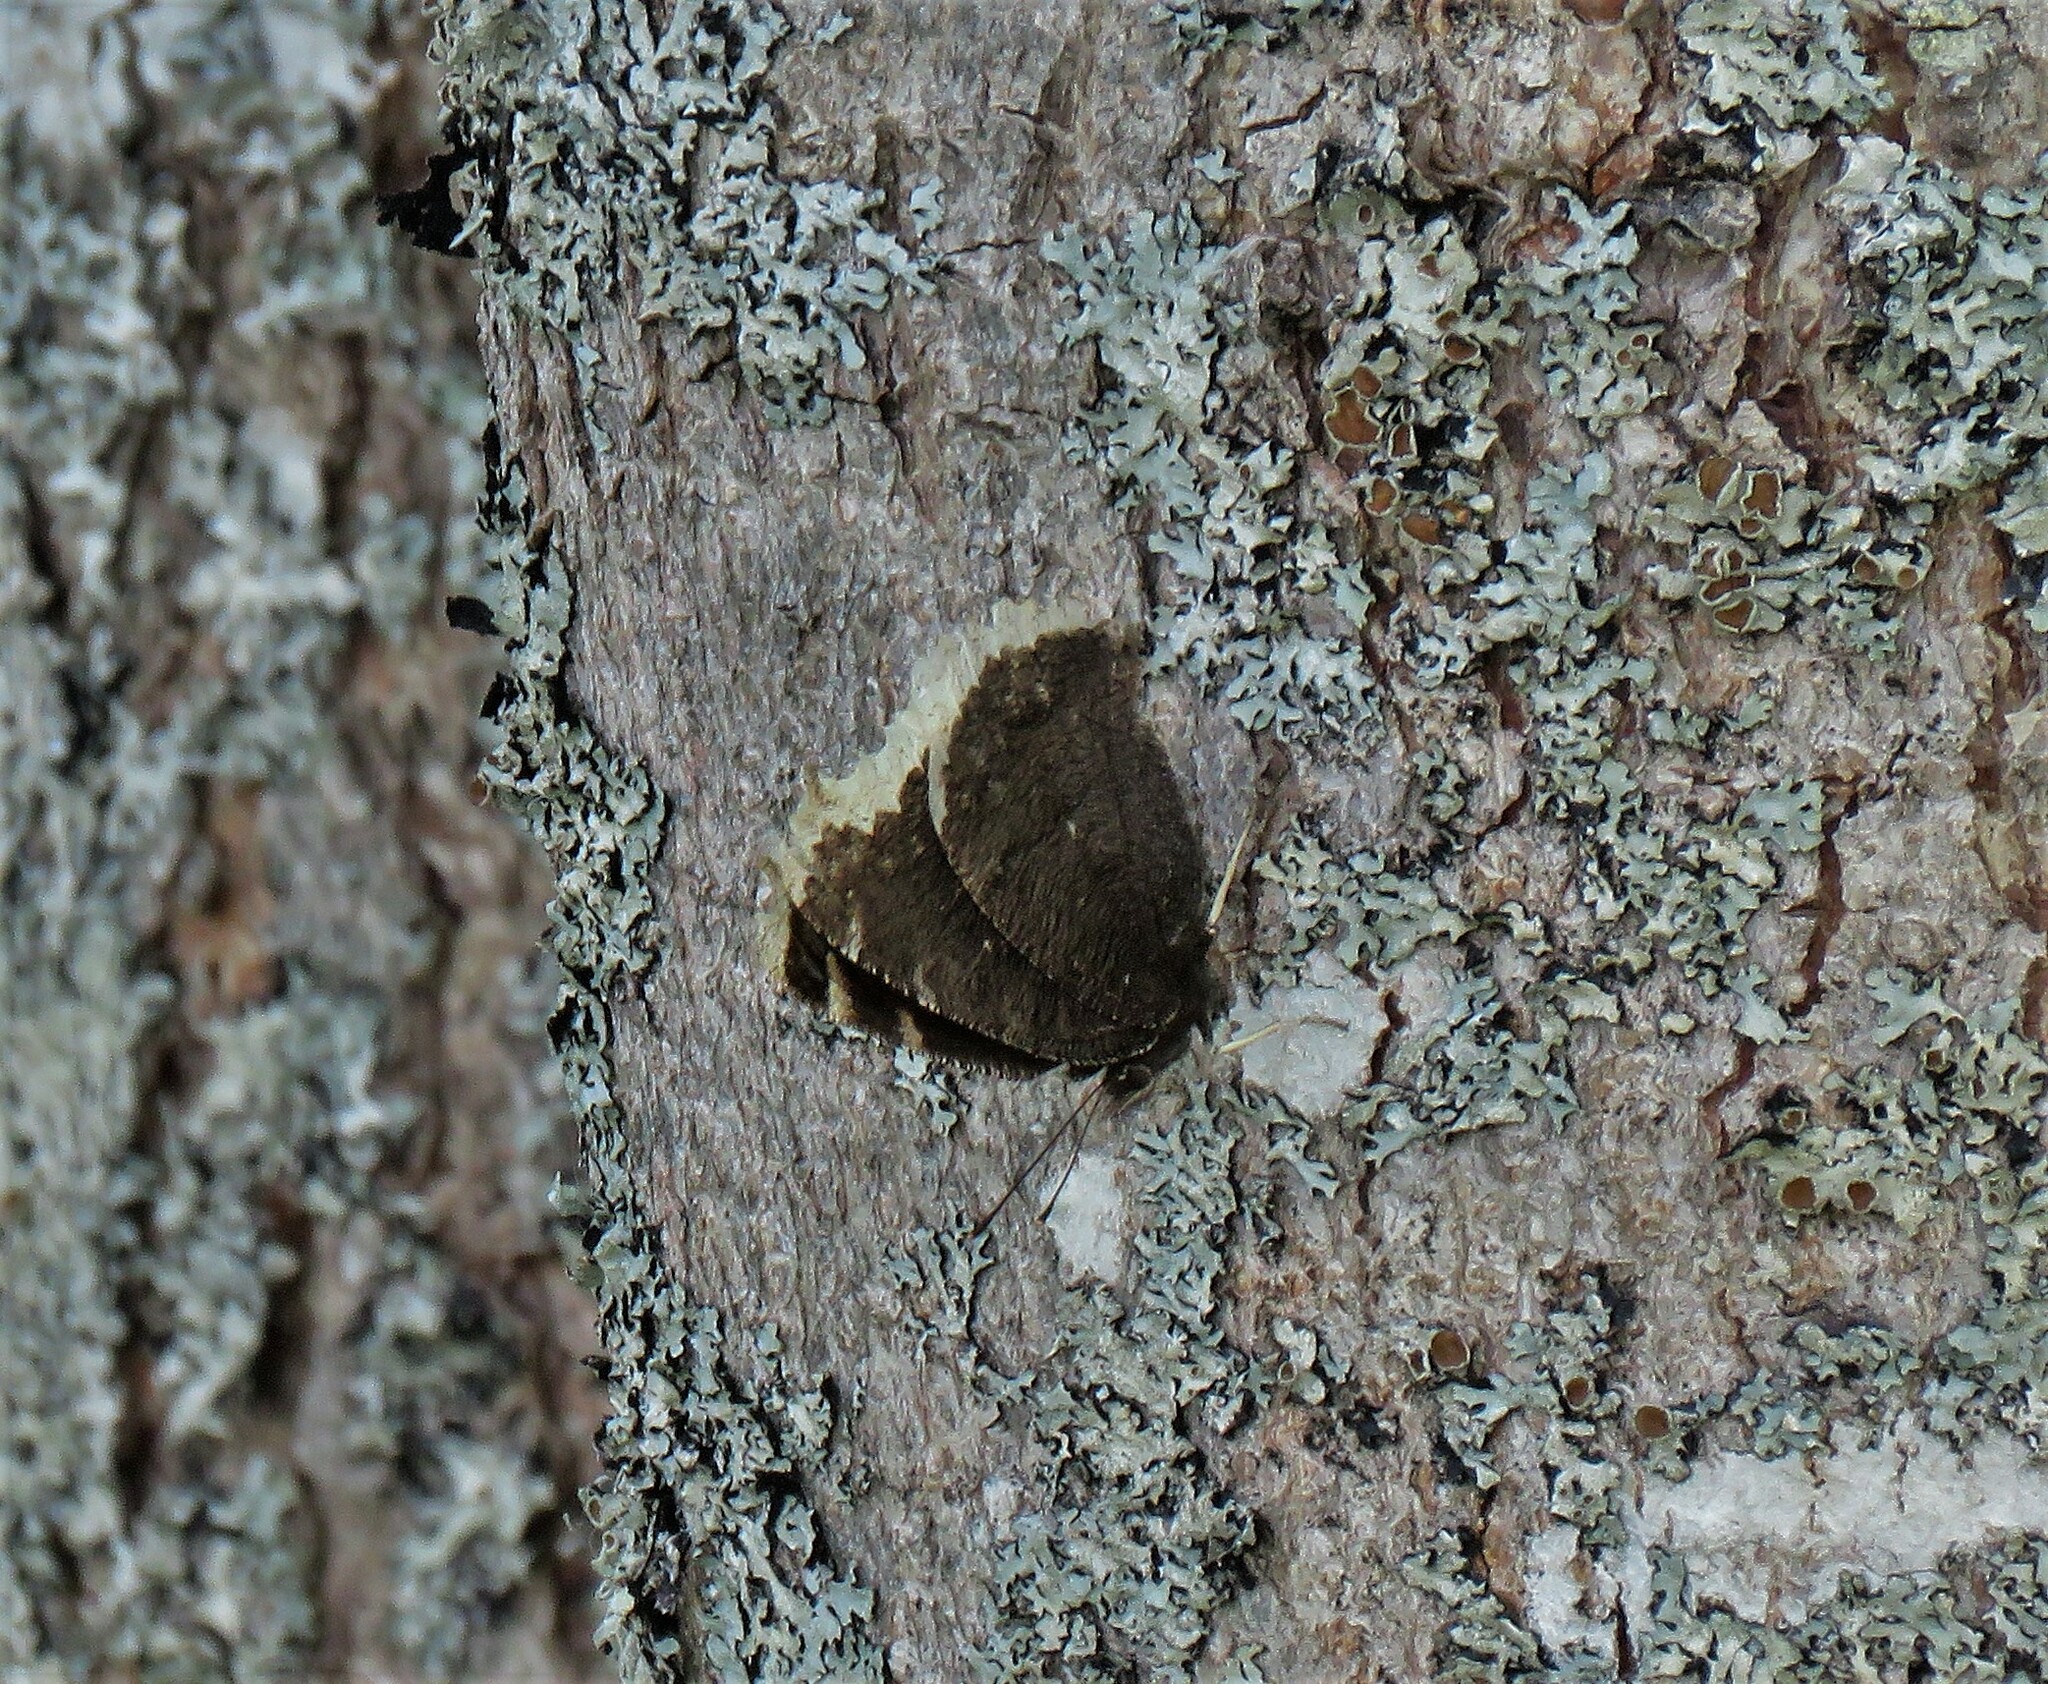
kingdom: Animalia
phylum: Arthropoda
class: Insecta
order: Lepidoptera
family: Nymphalidae
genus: Nymphalis
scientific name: Nymphalis antiopa
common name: Camberwell beauty
